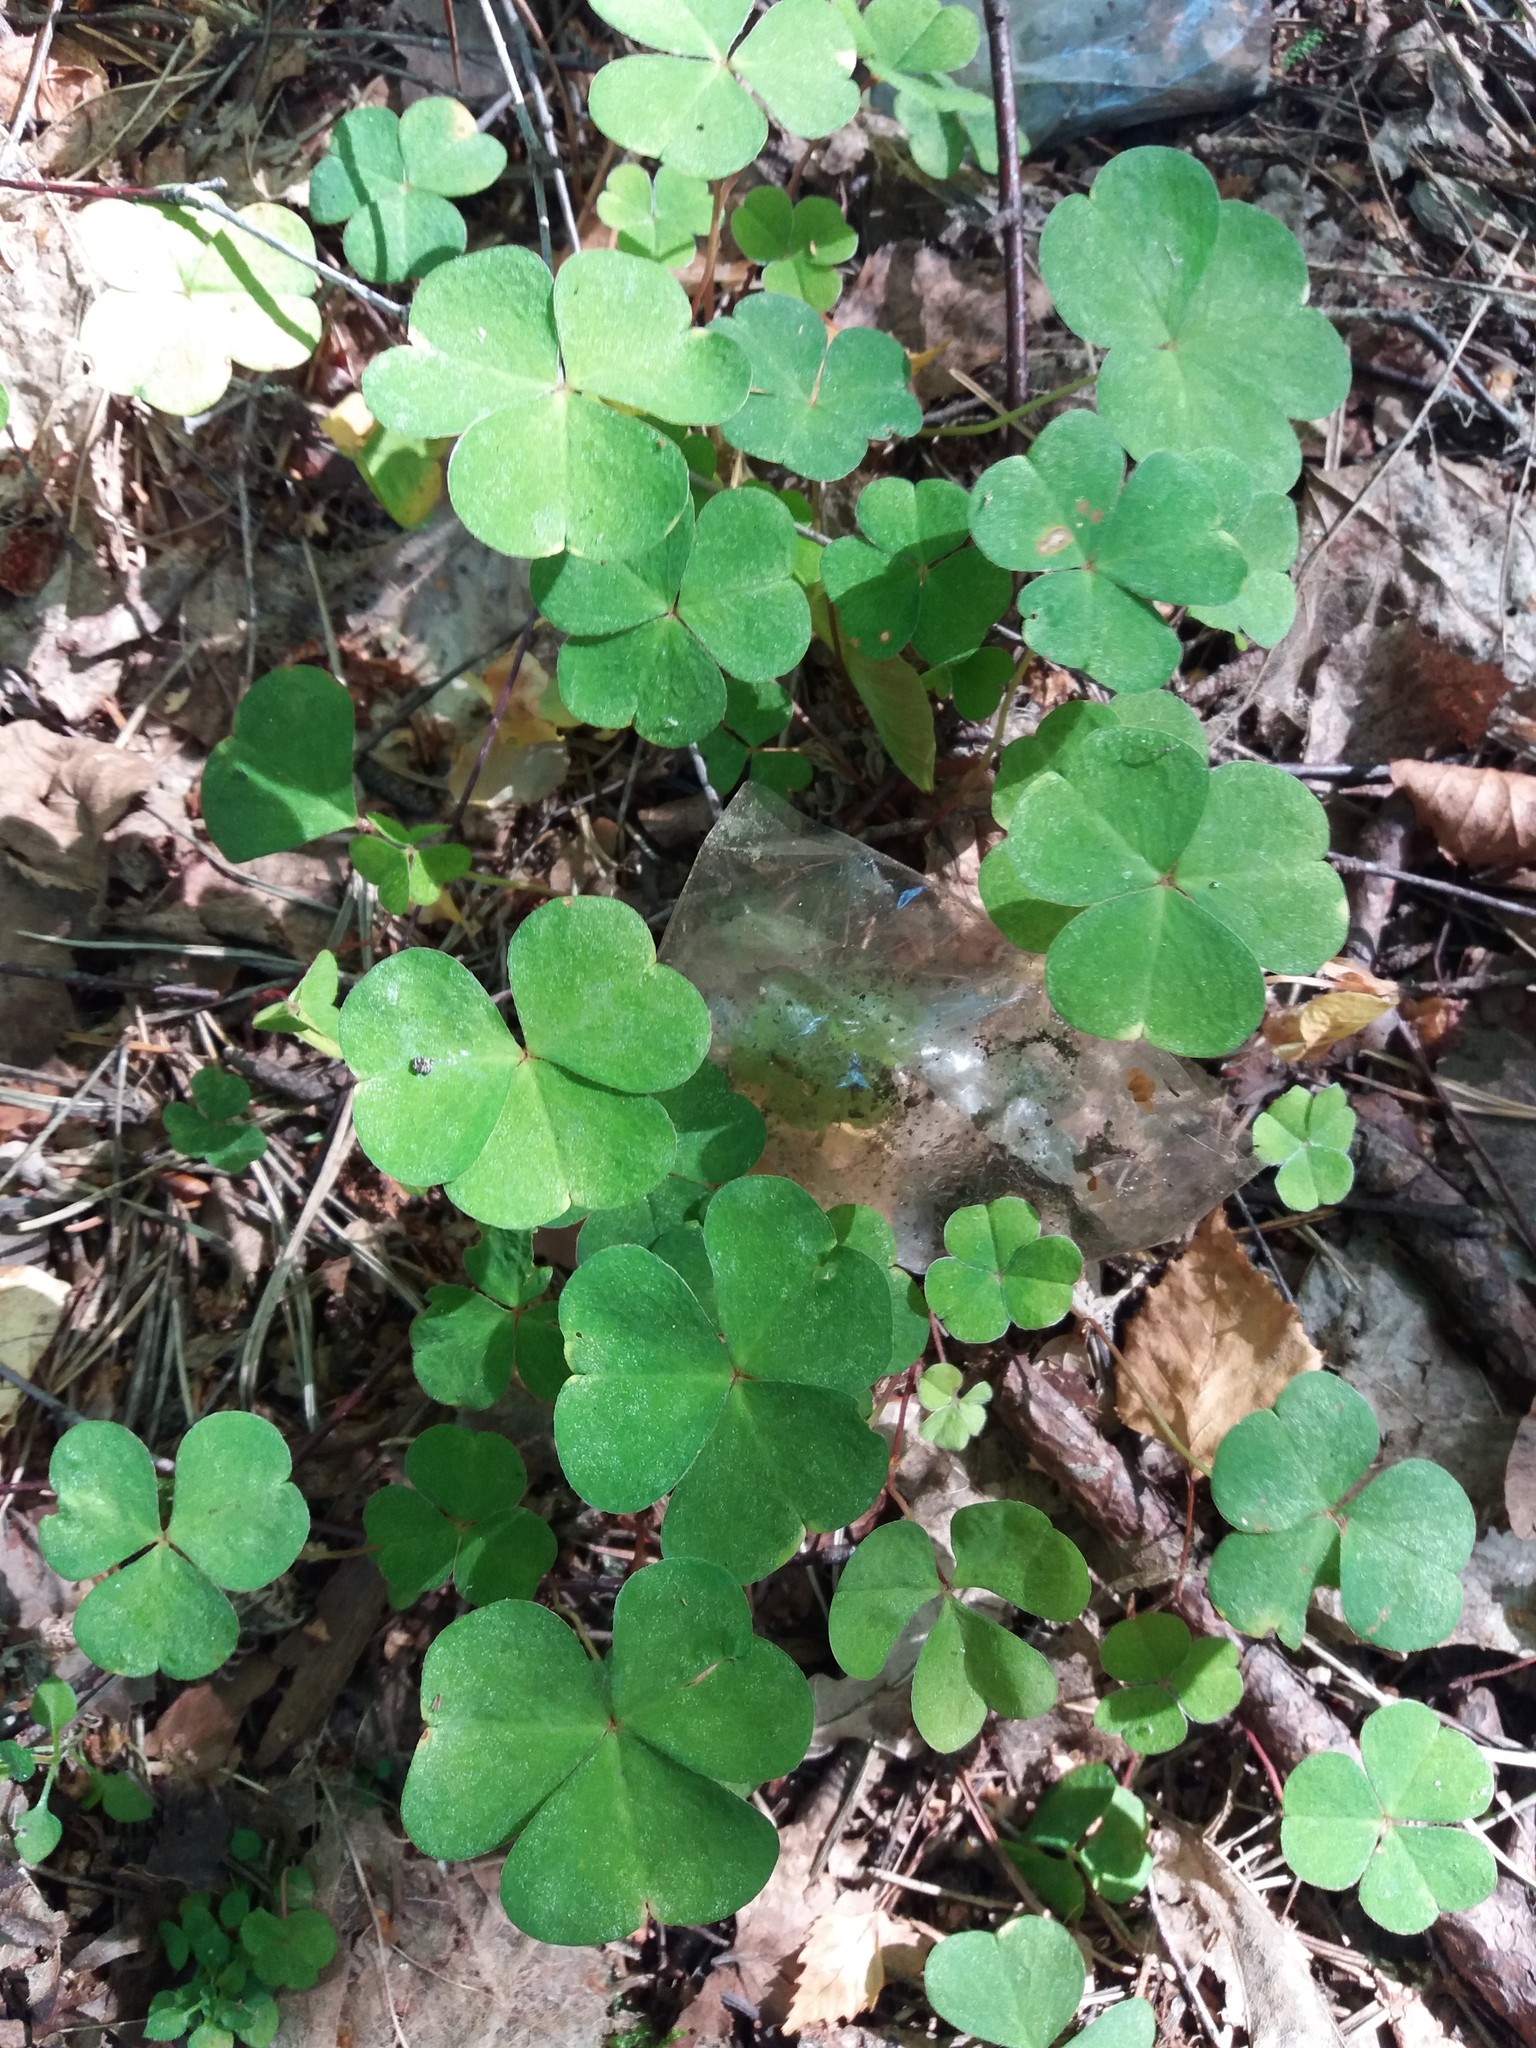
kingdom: Plantae
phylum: Tracheophyta
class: Magnoliopsida
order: Oxalidales
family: Oxalidaceae
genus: Oxalis
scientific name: Oxalis acetosella
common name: Wood-sorrel
